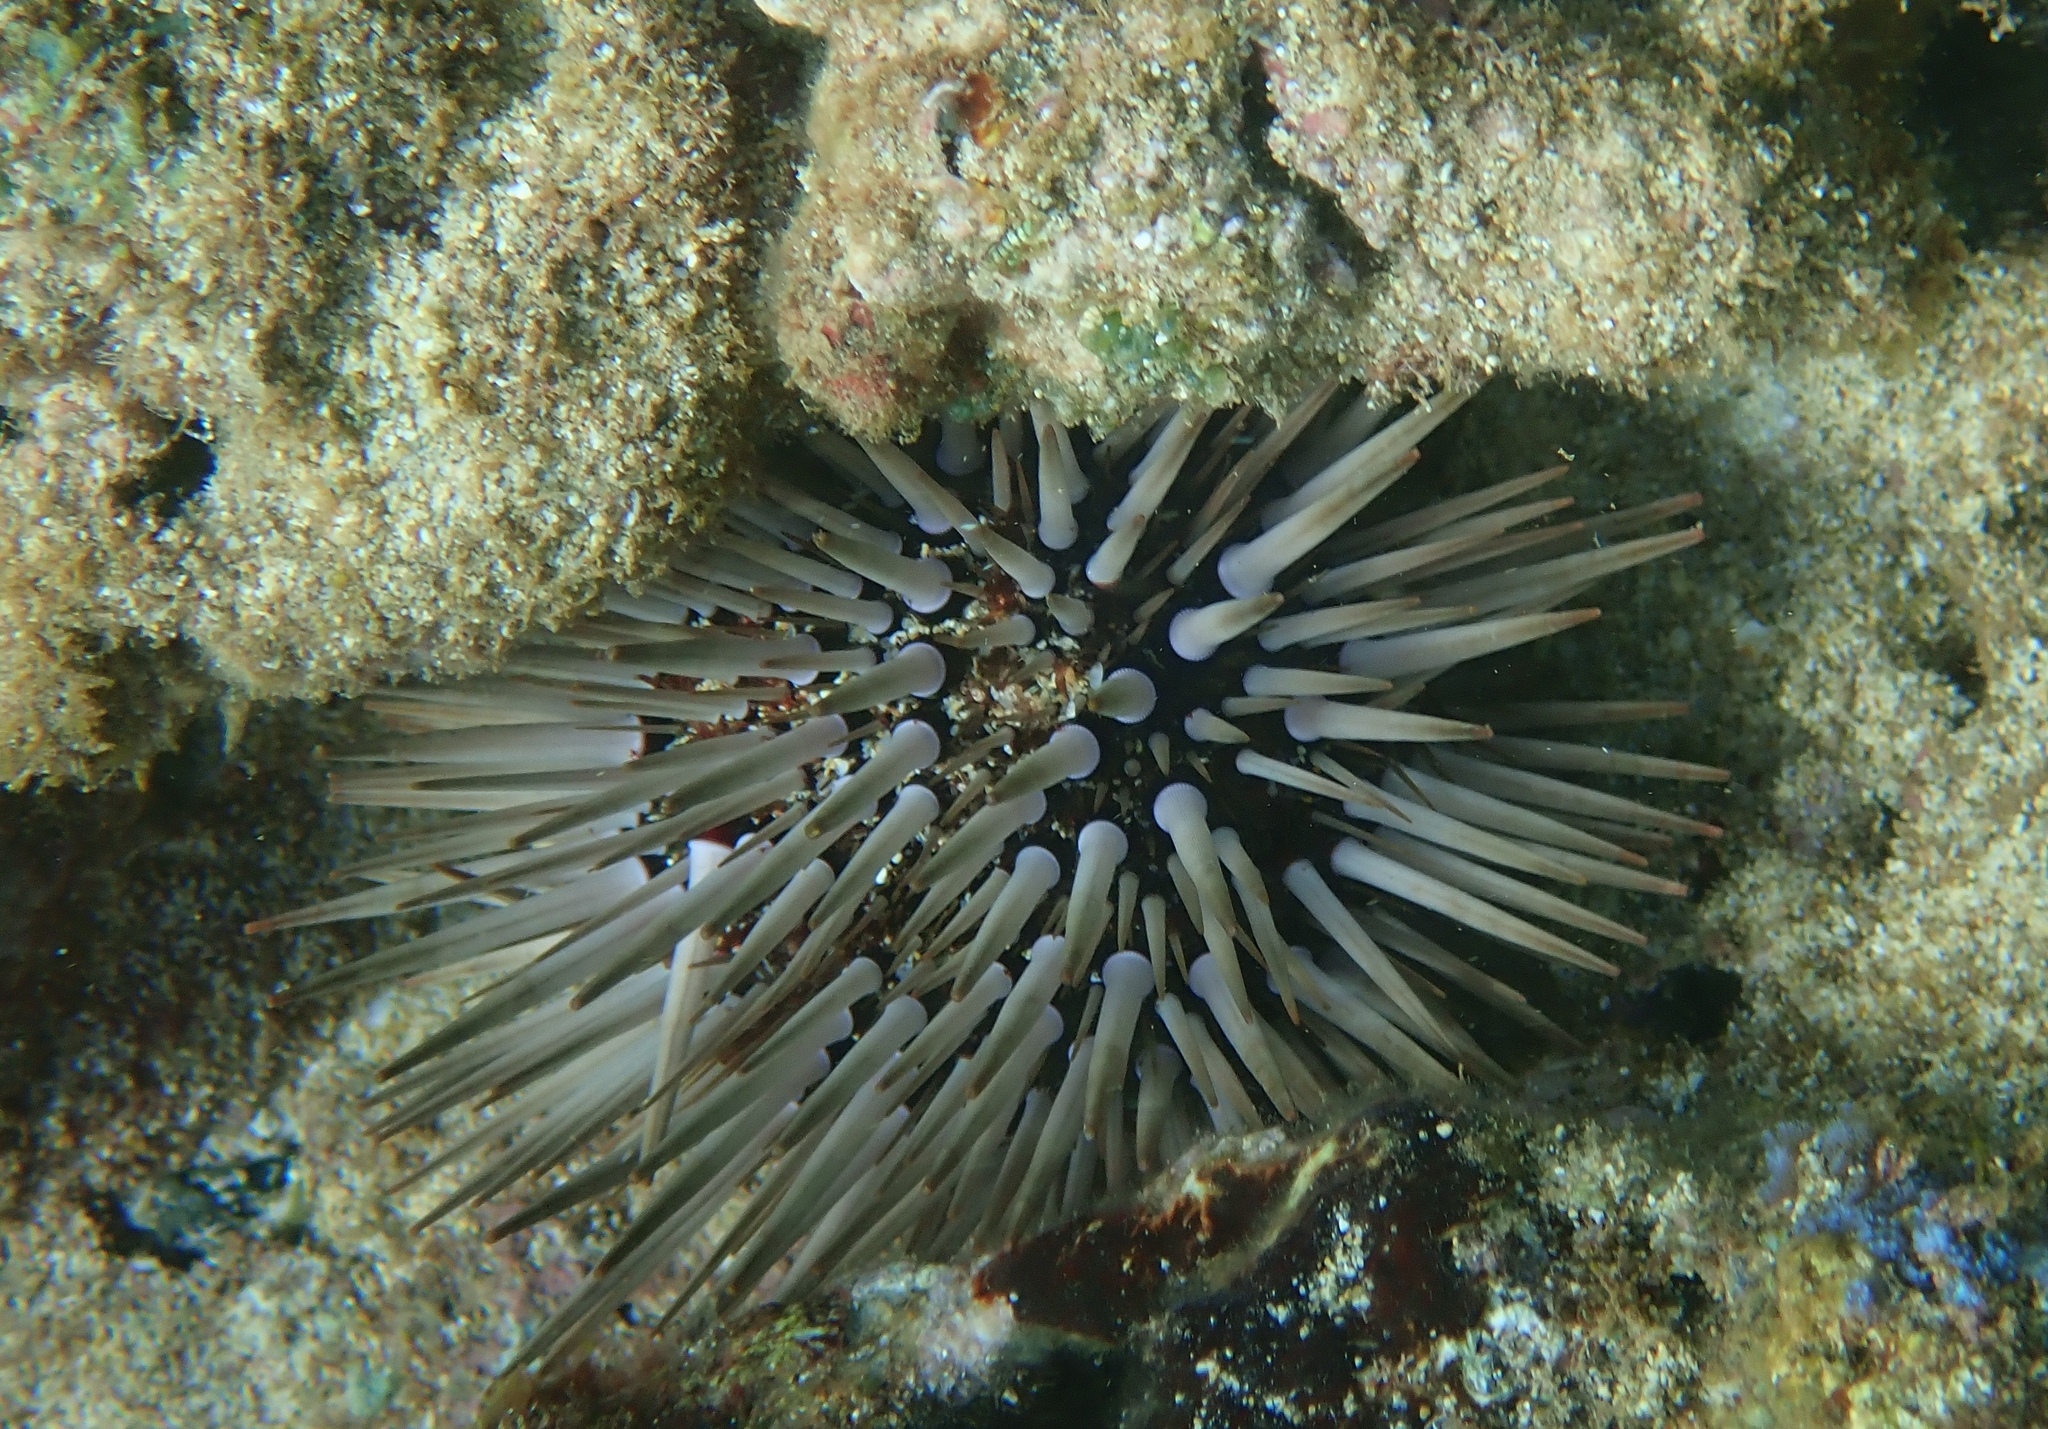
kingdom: Animalia
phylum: Echinodermata
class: Echinoidea
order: Camarodonta
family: Echinometridae
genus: Echinometra
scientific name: Echinometra mathaei
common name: Rock-boring urchin
